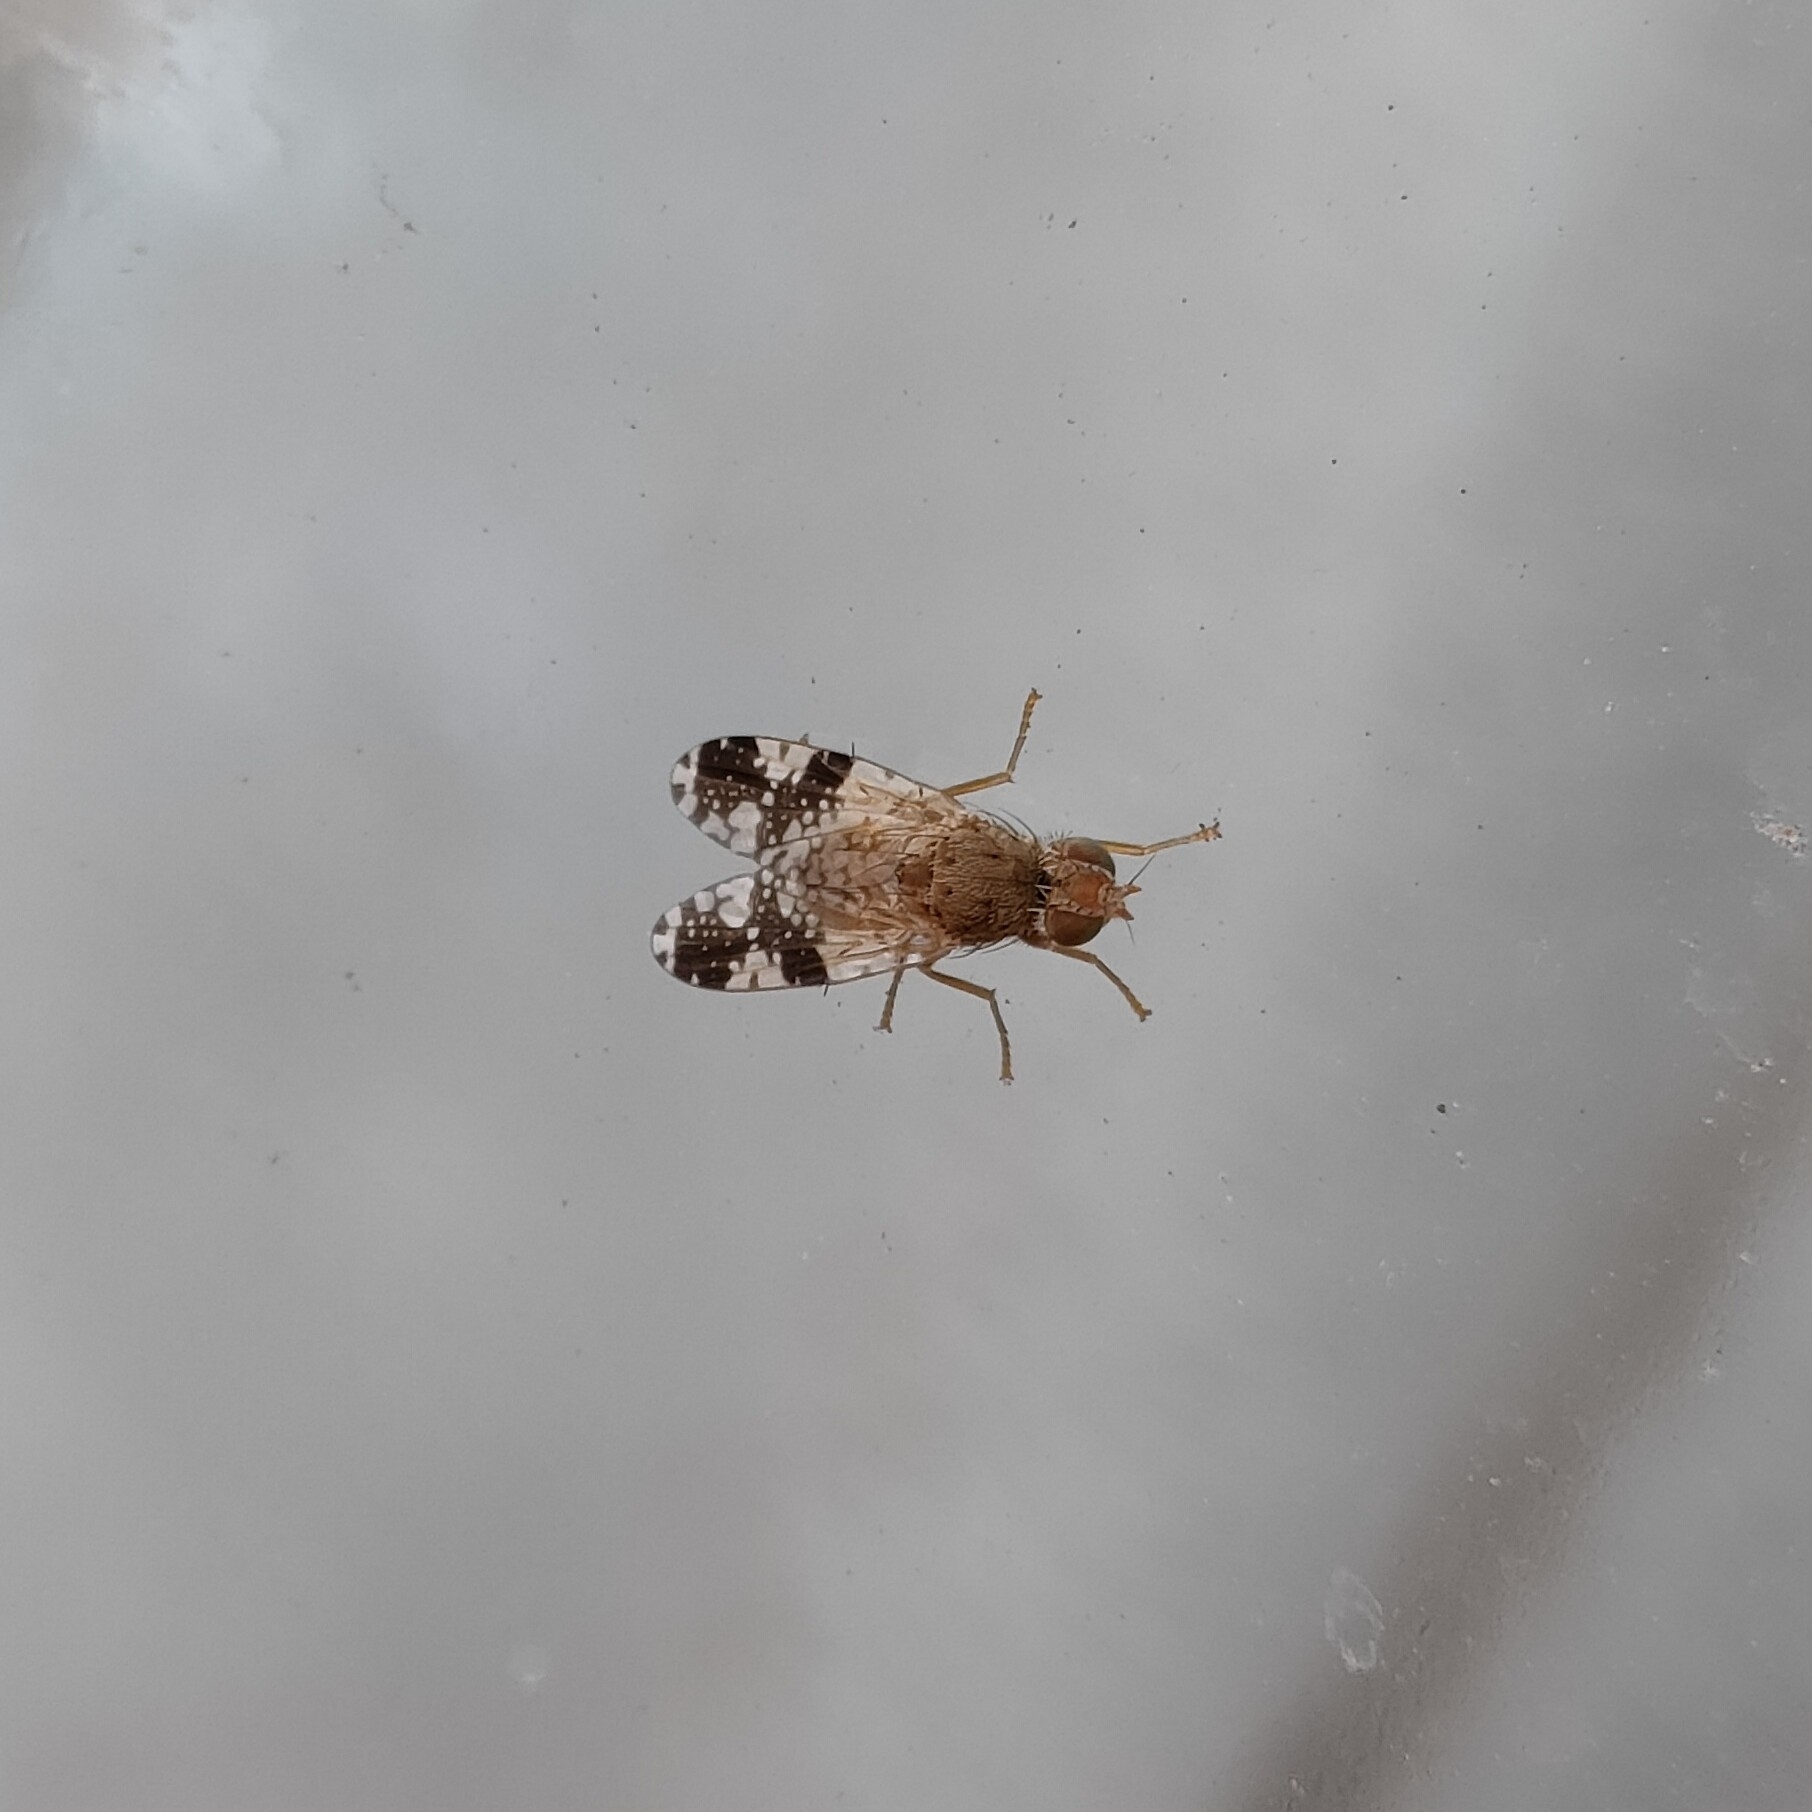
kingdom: Animalia
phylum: Arthropoda
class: Insecta
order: Diptera
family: Tephritidae
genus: Tephritis
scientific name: Tephritis bardanae
